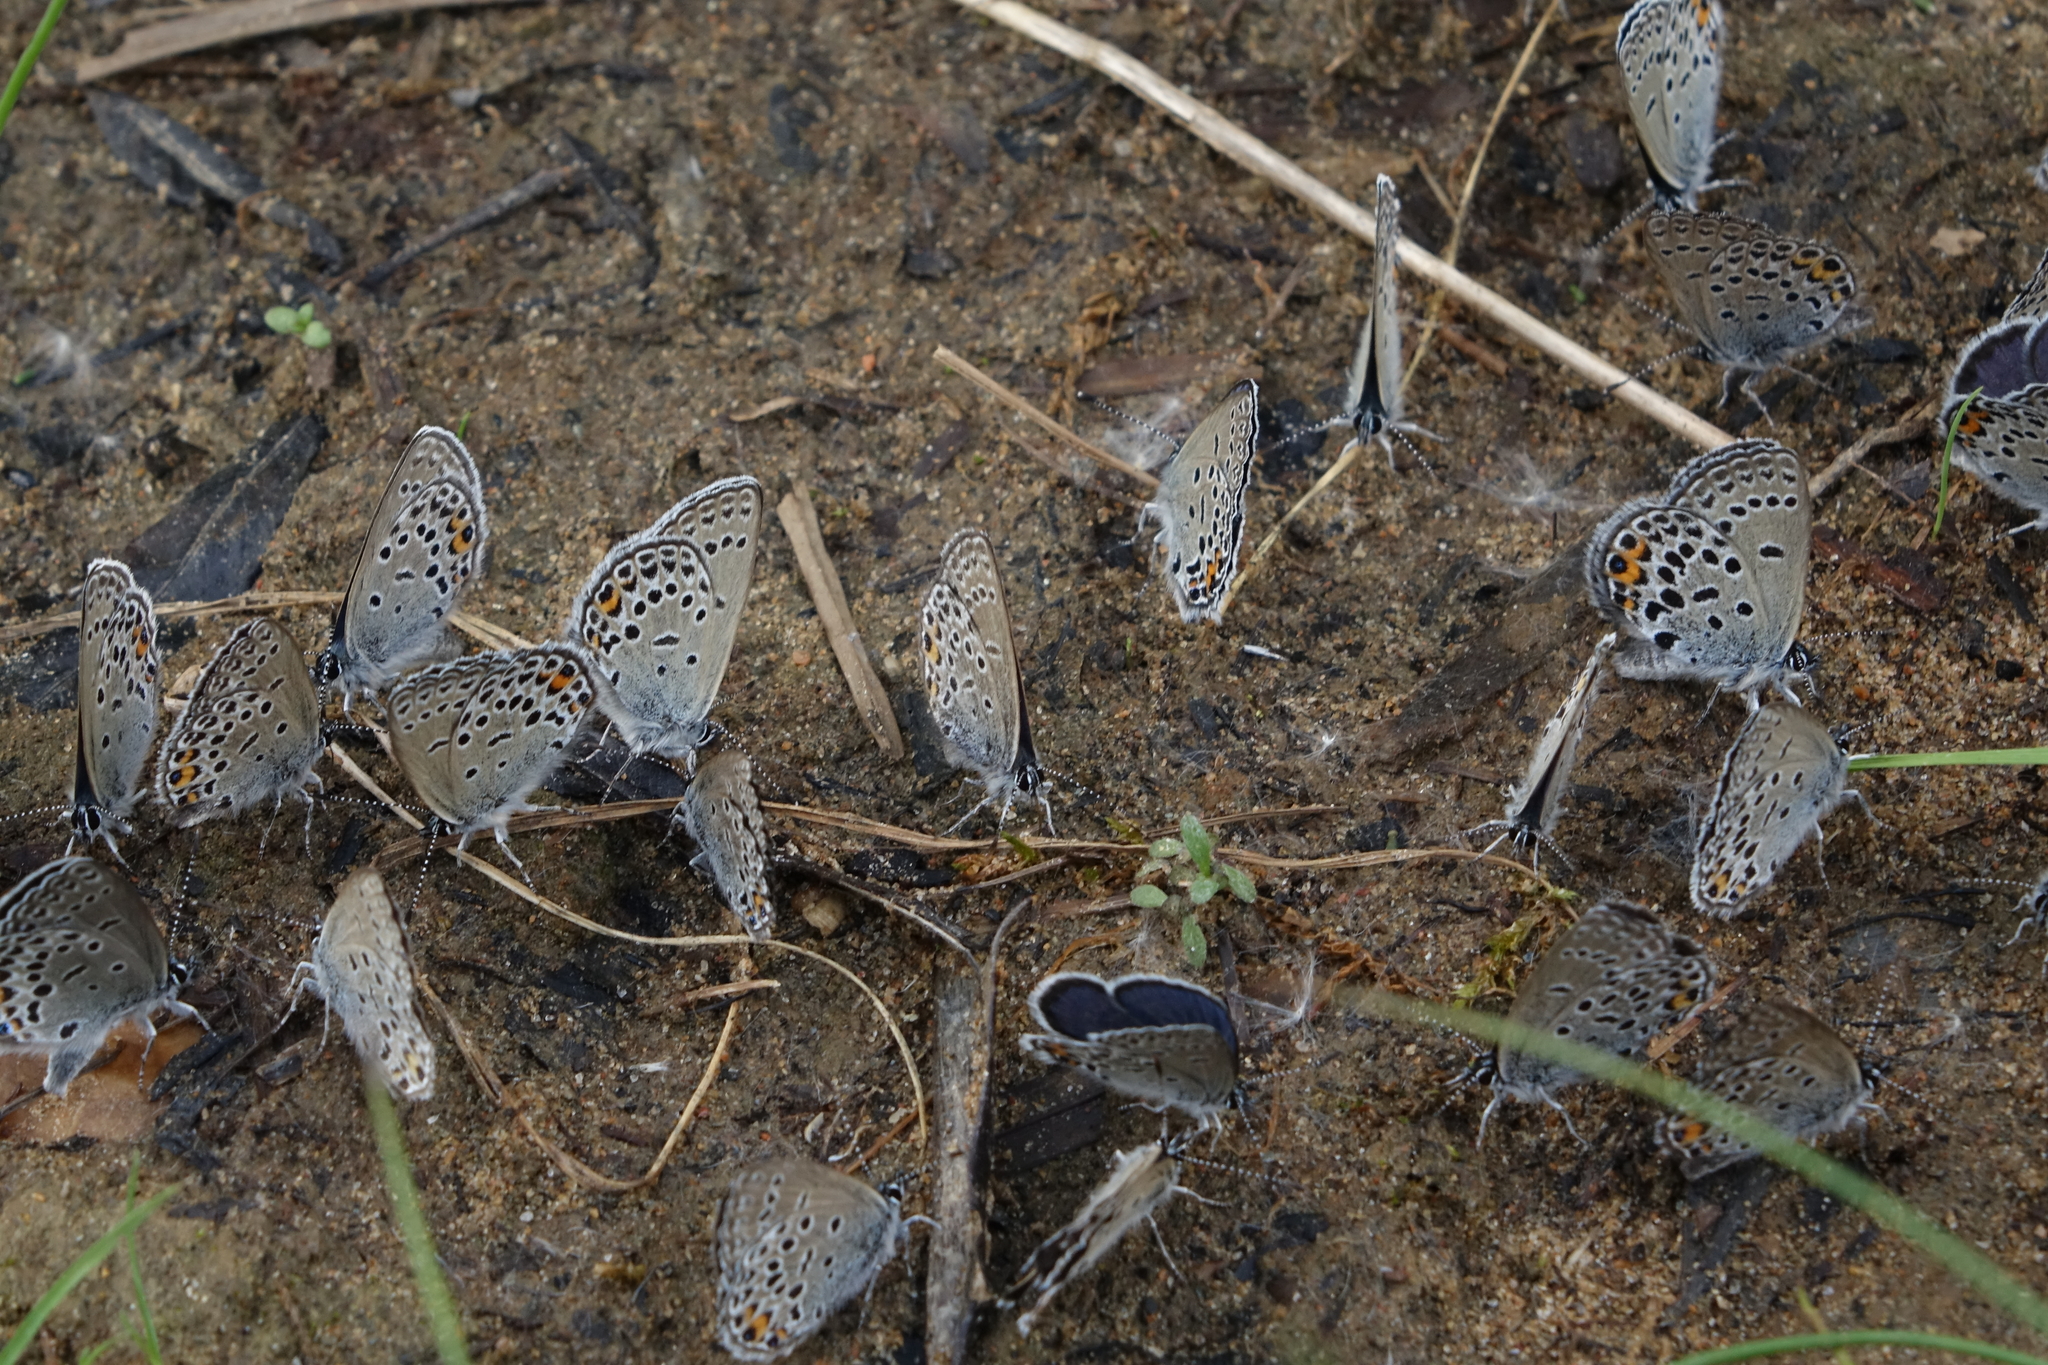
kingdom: Animalia
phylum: Arthropoda
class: Insecta
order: Lepidoptera
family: Lycaenidae
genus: Vacciniina
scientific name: Vacciniina optilete
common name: Cranberry blue
